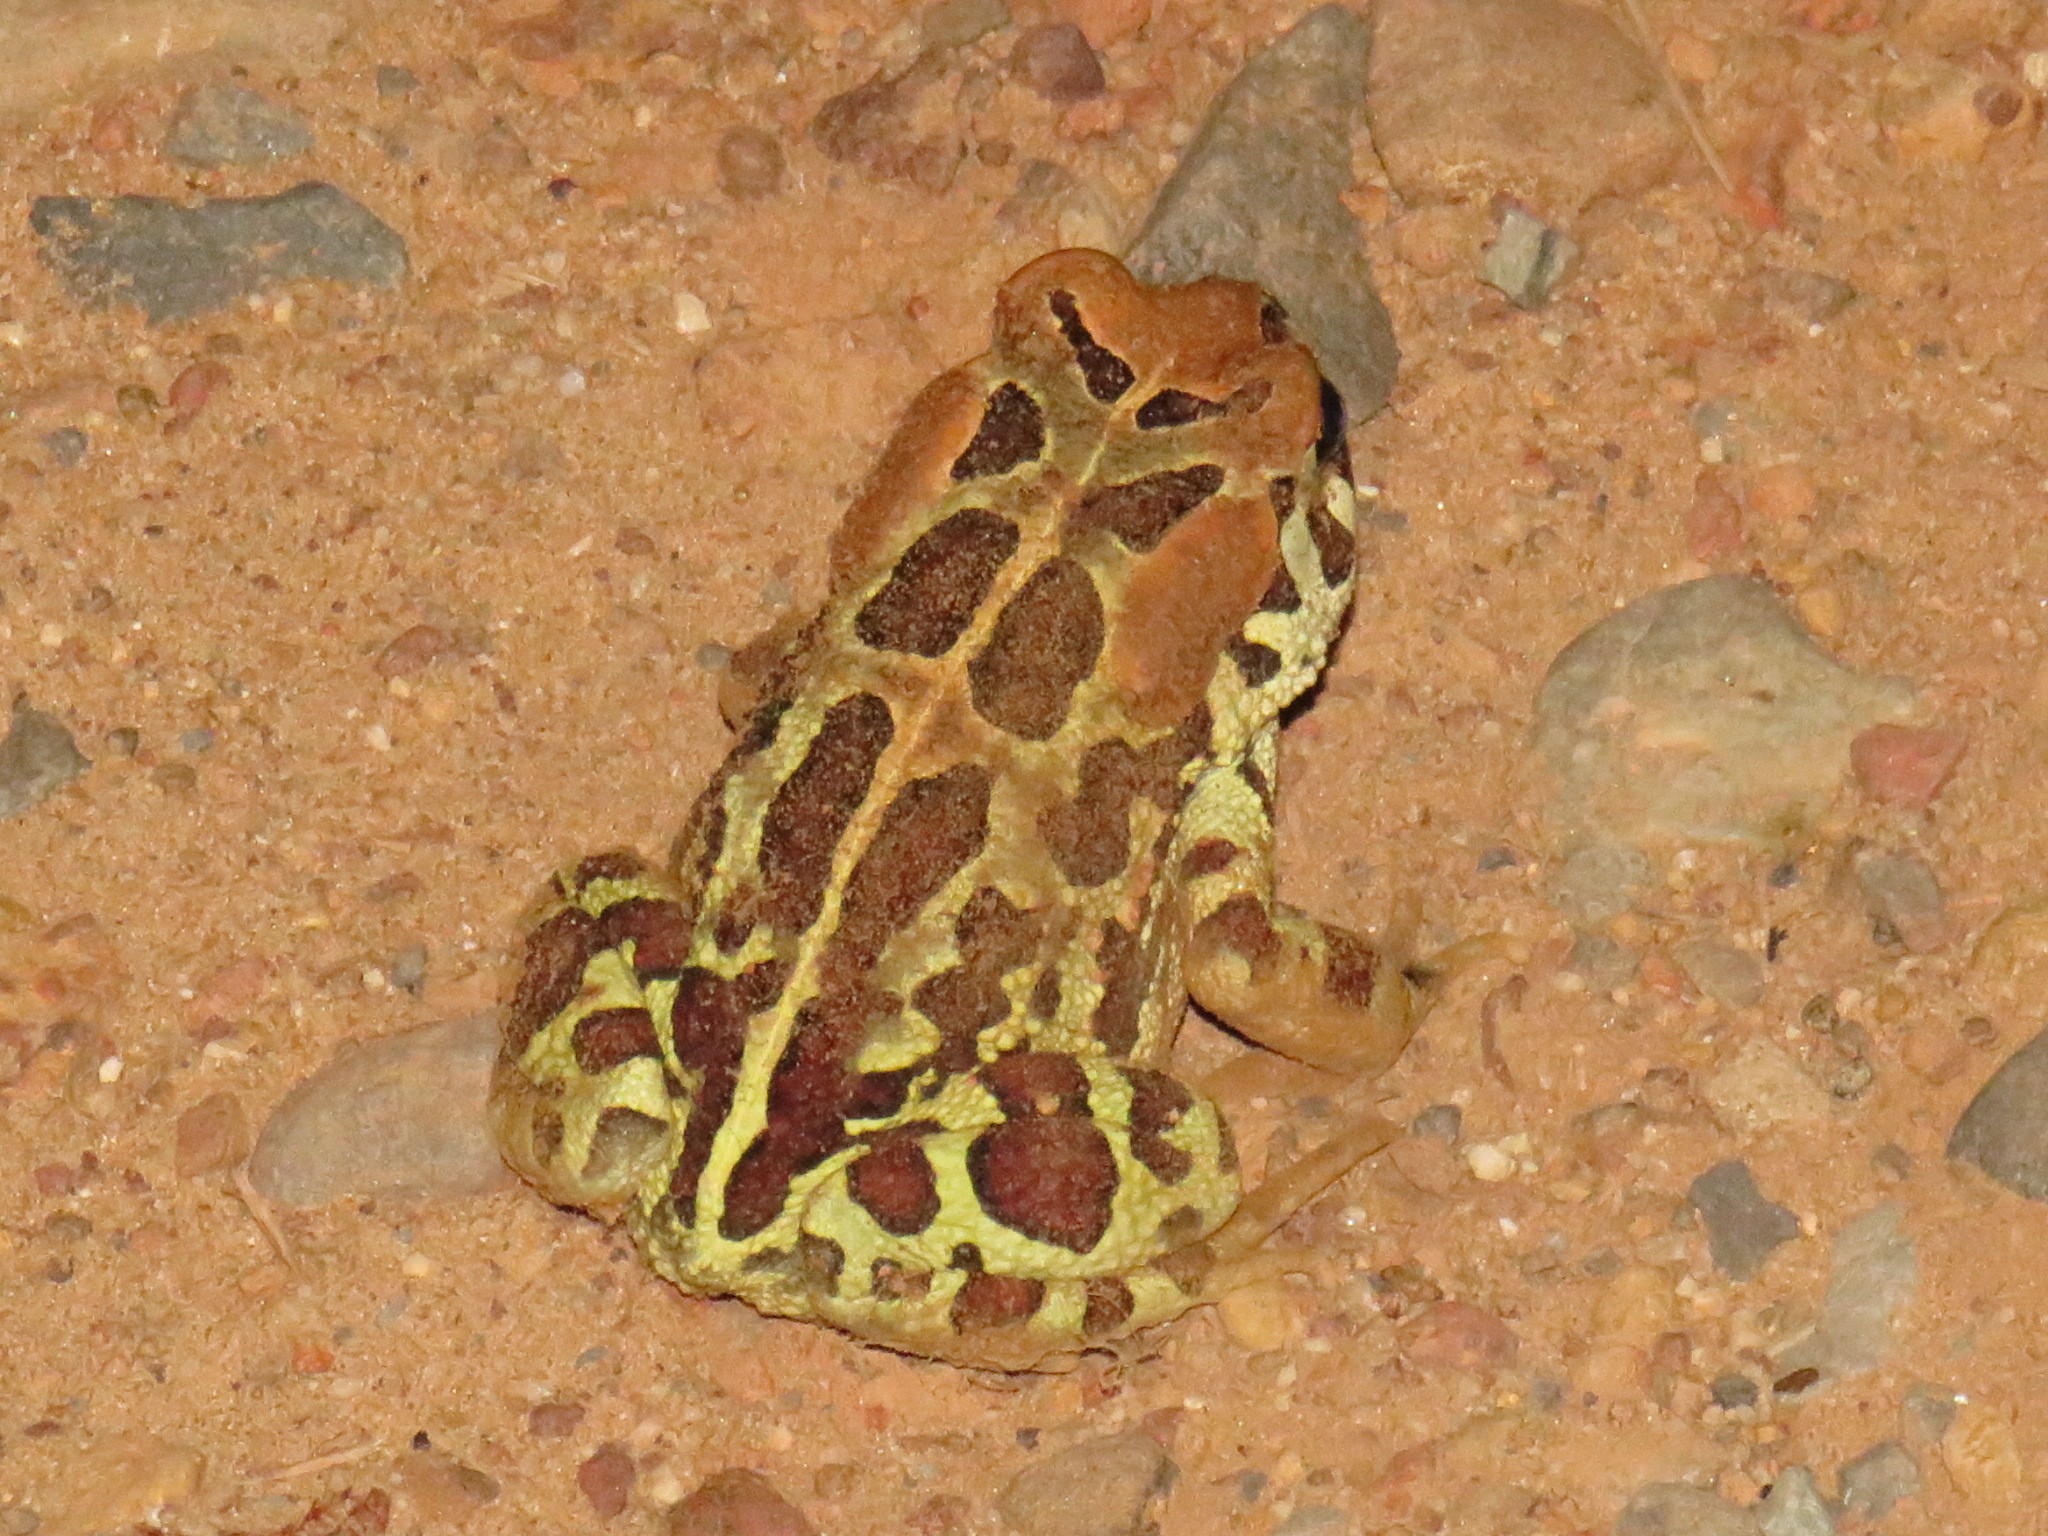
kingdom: Animalia
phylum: Chordata
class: Amphibia
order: Anura
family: Bufonidae
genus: Sclerophrys
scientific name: Sclerophrys pantherina
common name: Panther toad
